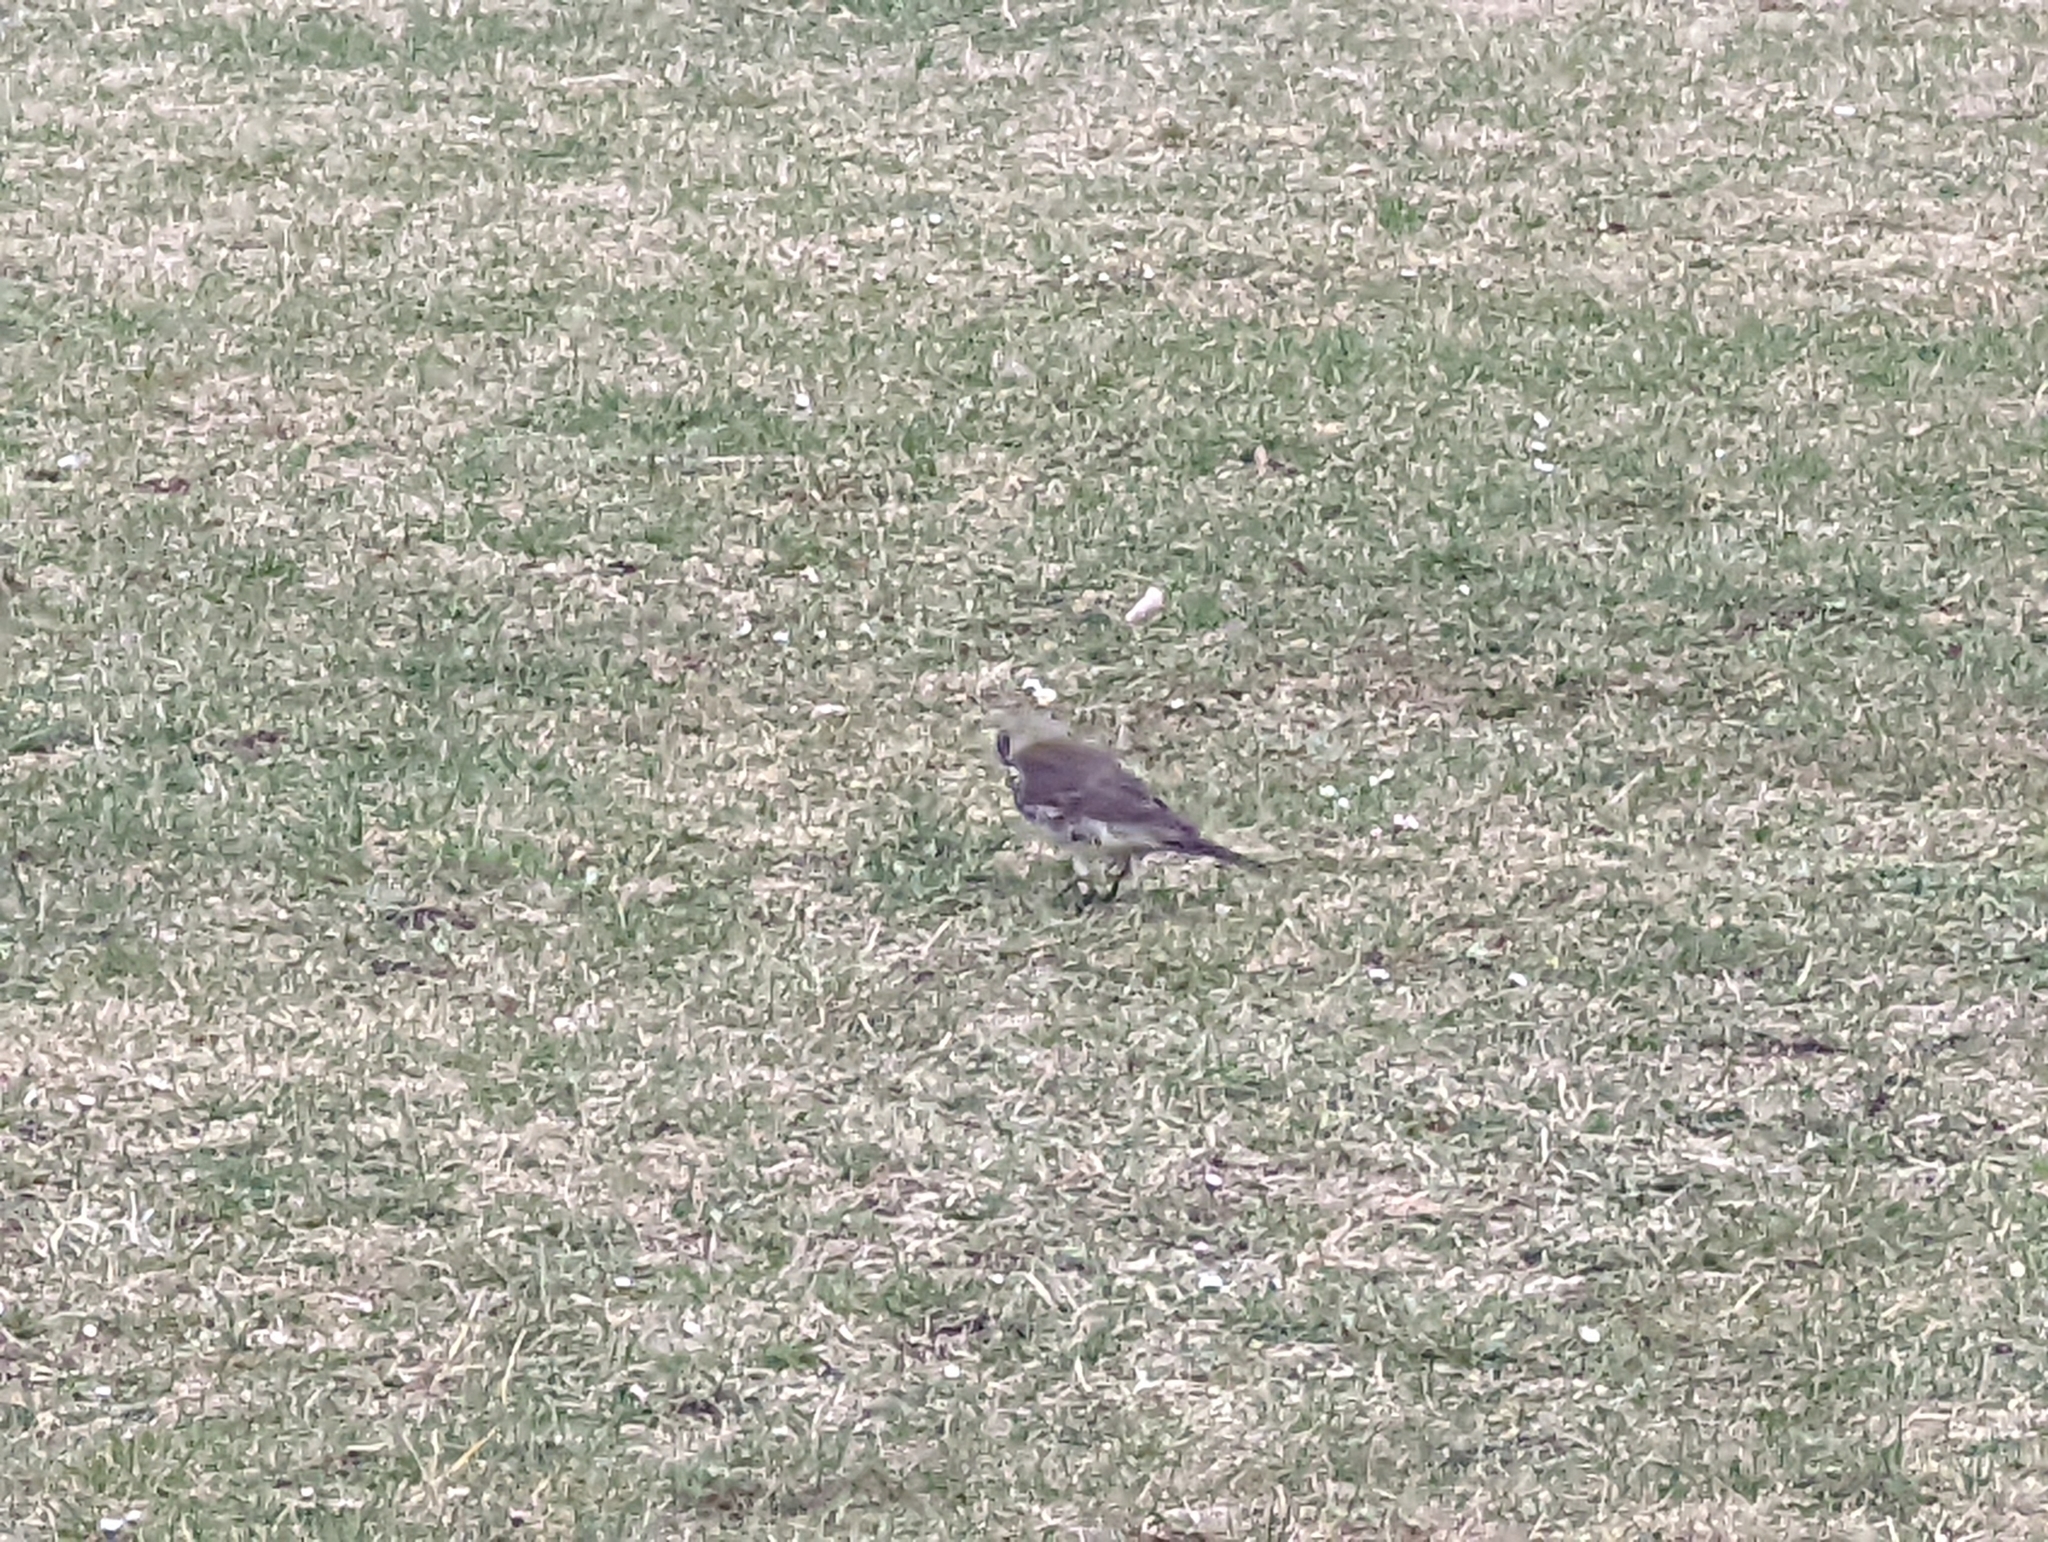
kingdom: Animalia
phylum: Chordata
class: Aves
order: Passeriformes
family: Turdidae
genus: Turdus
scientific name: Turdus pilaris
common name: Fieldfare
